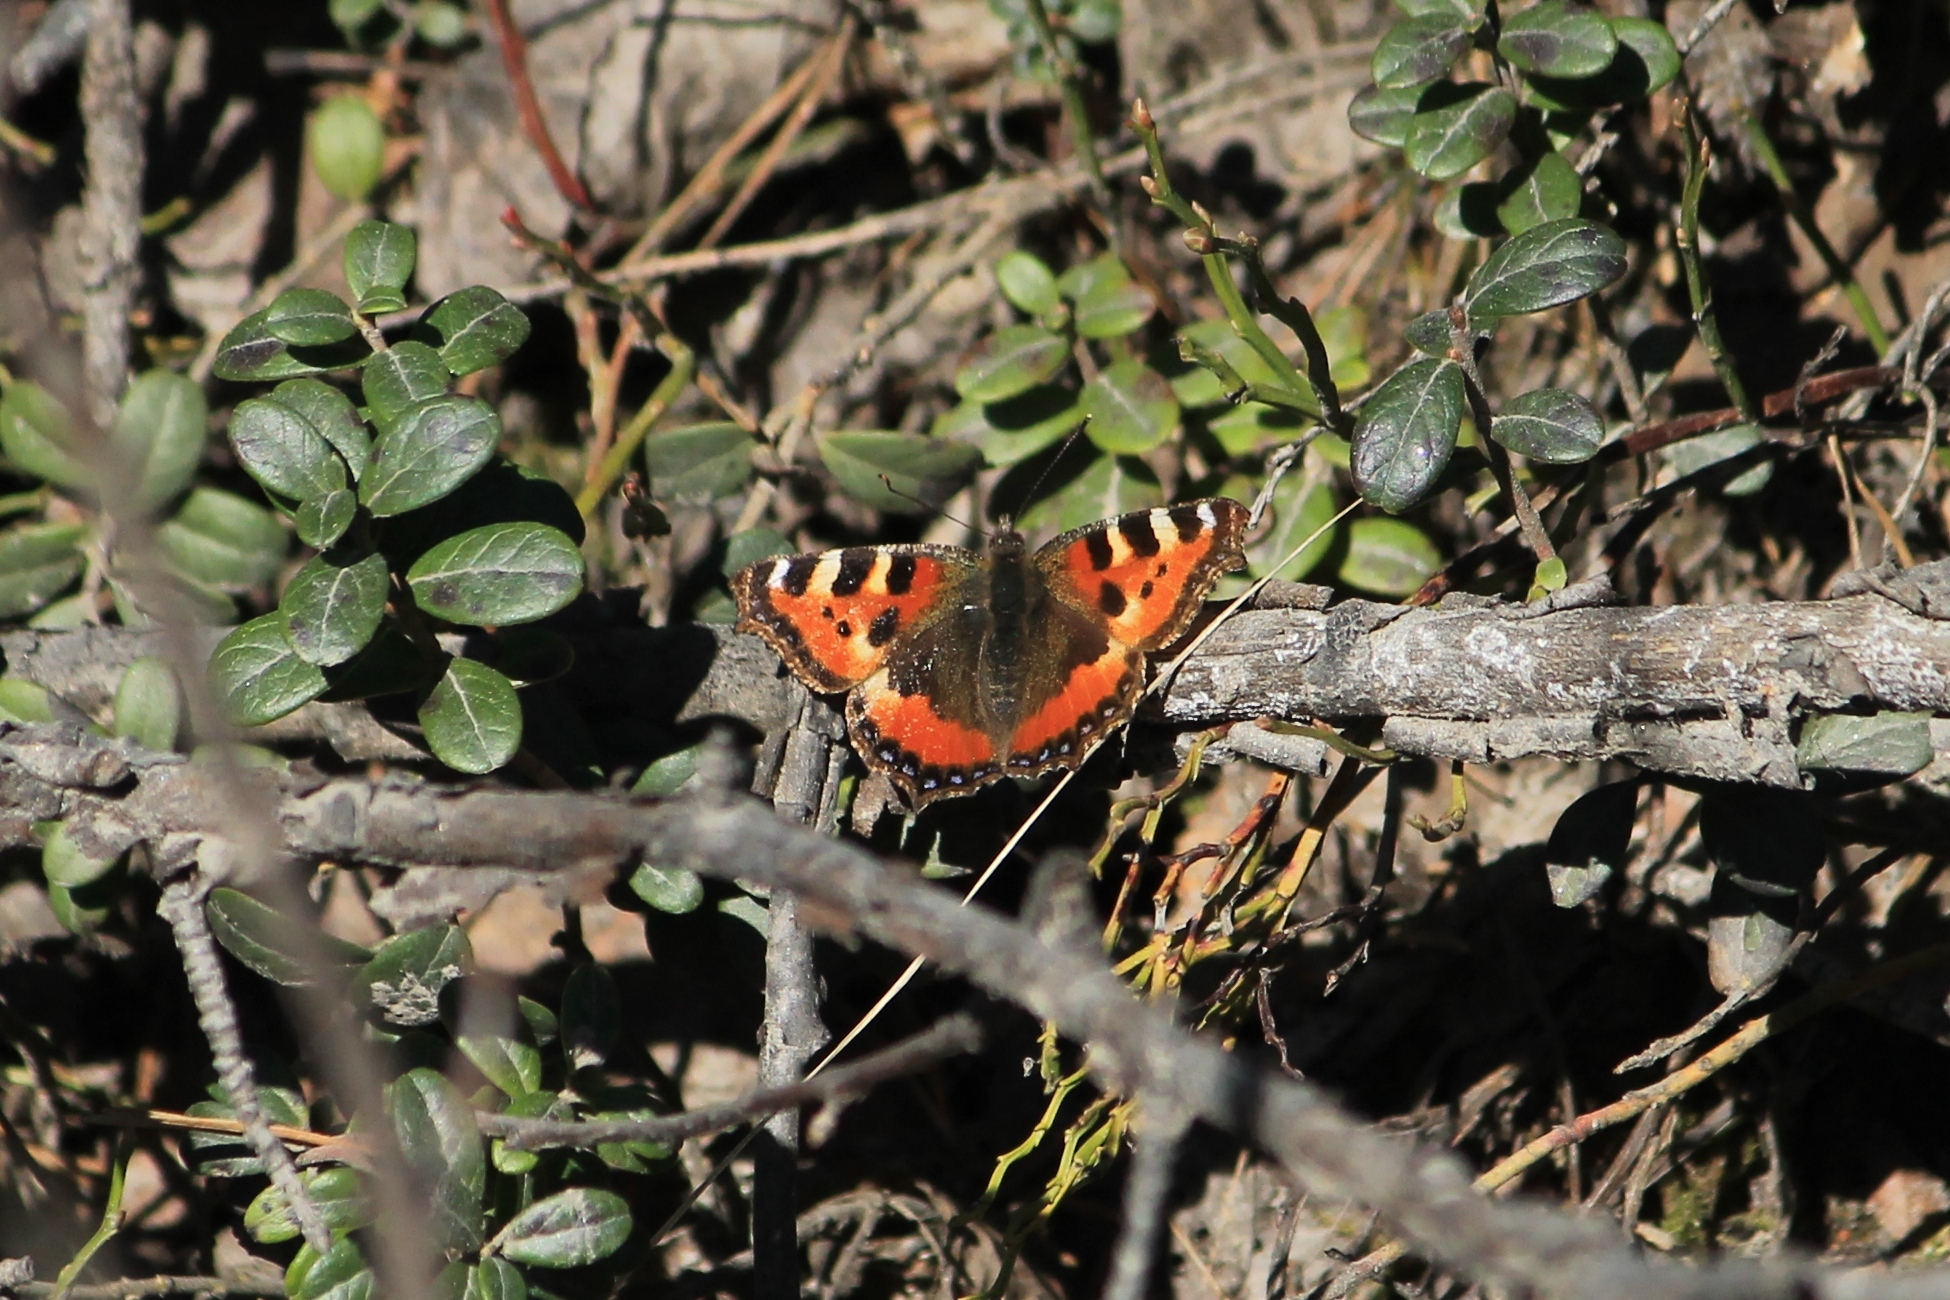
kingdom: Animalia
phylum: Arthropoda
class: Insecta
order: Lepidoptera
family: Nymphalidae
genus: Aglais
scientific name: Aglais urticae
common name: Small tortoiseshell
